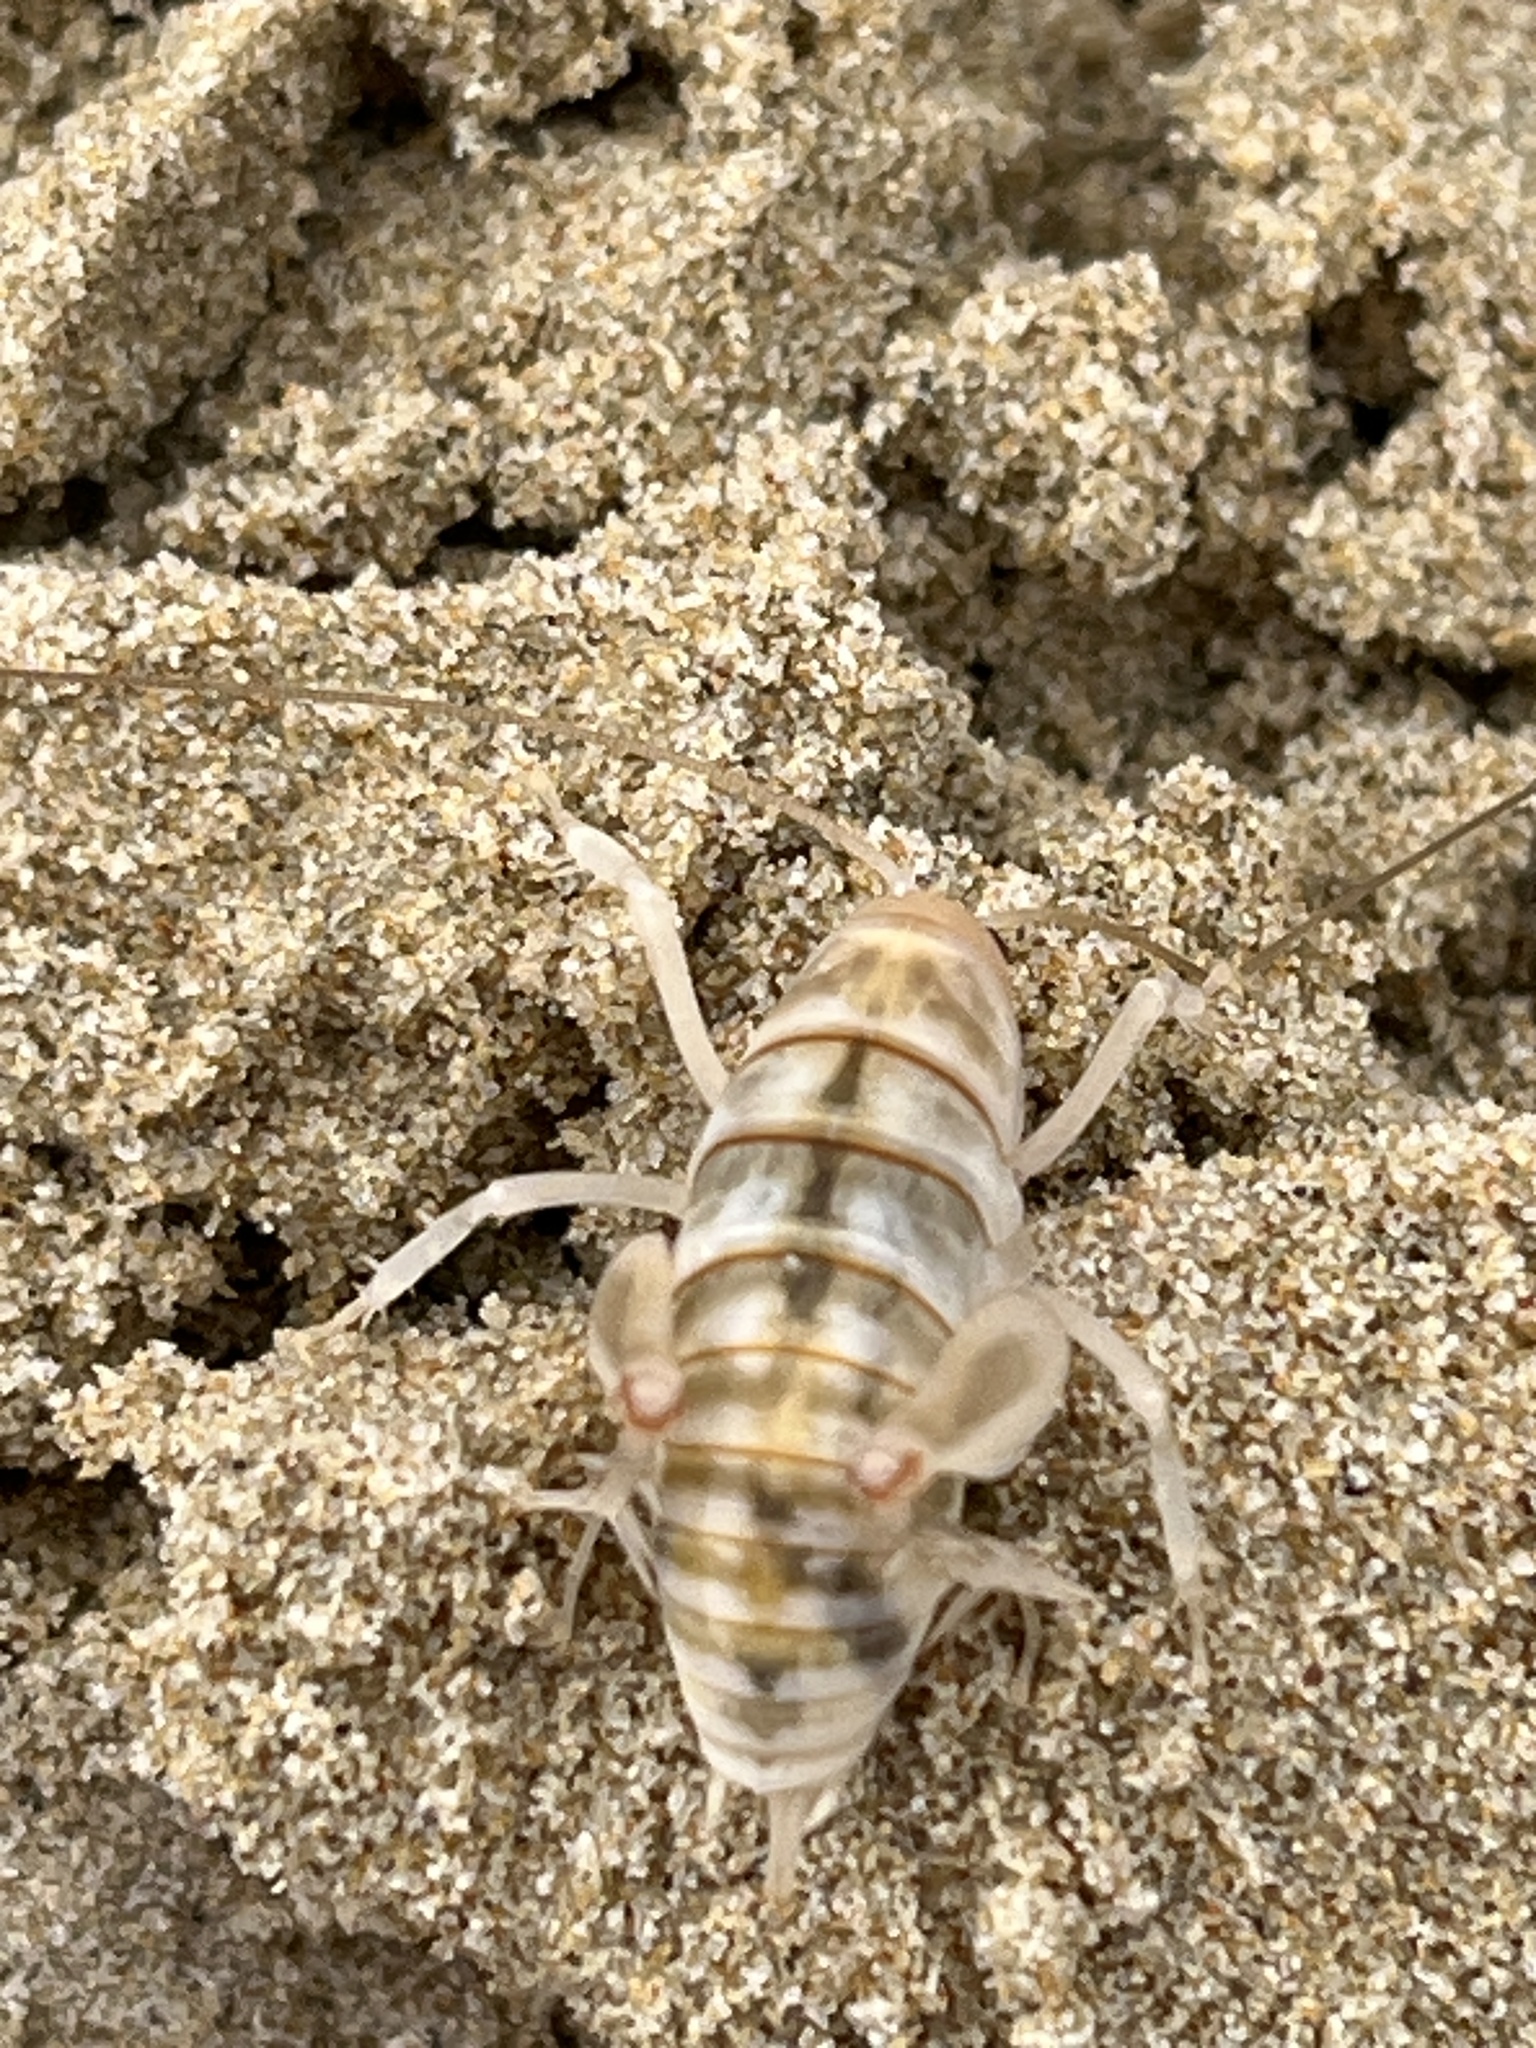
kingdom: Animalia
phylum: Arthropoda
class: Insecta
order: Orthoptera
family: Rhaphidophoridae
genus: Rhachocnemis
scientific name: Rhachocnemis validus
